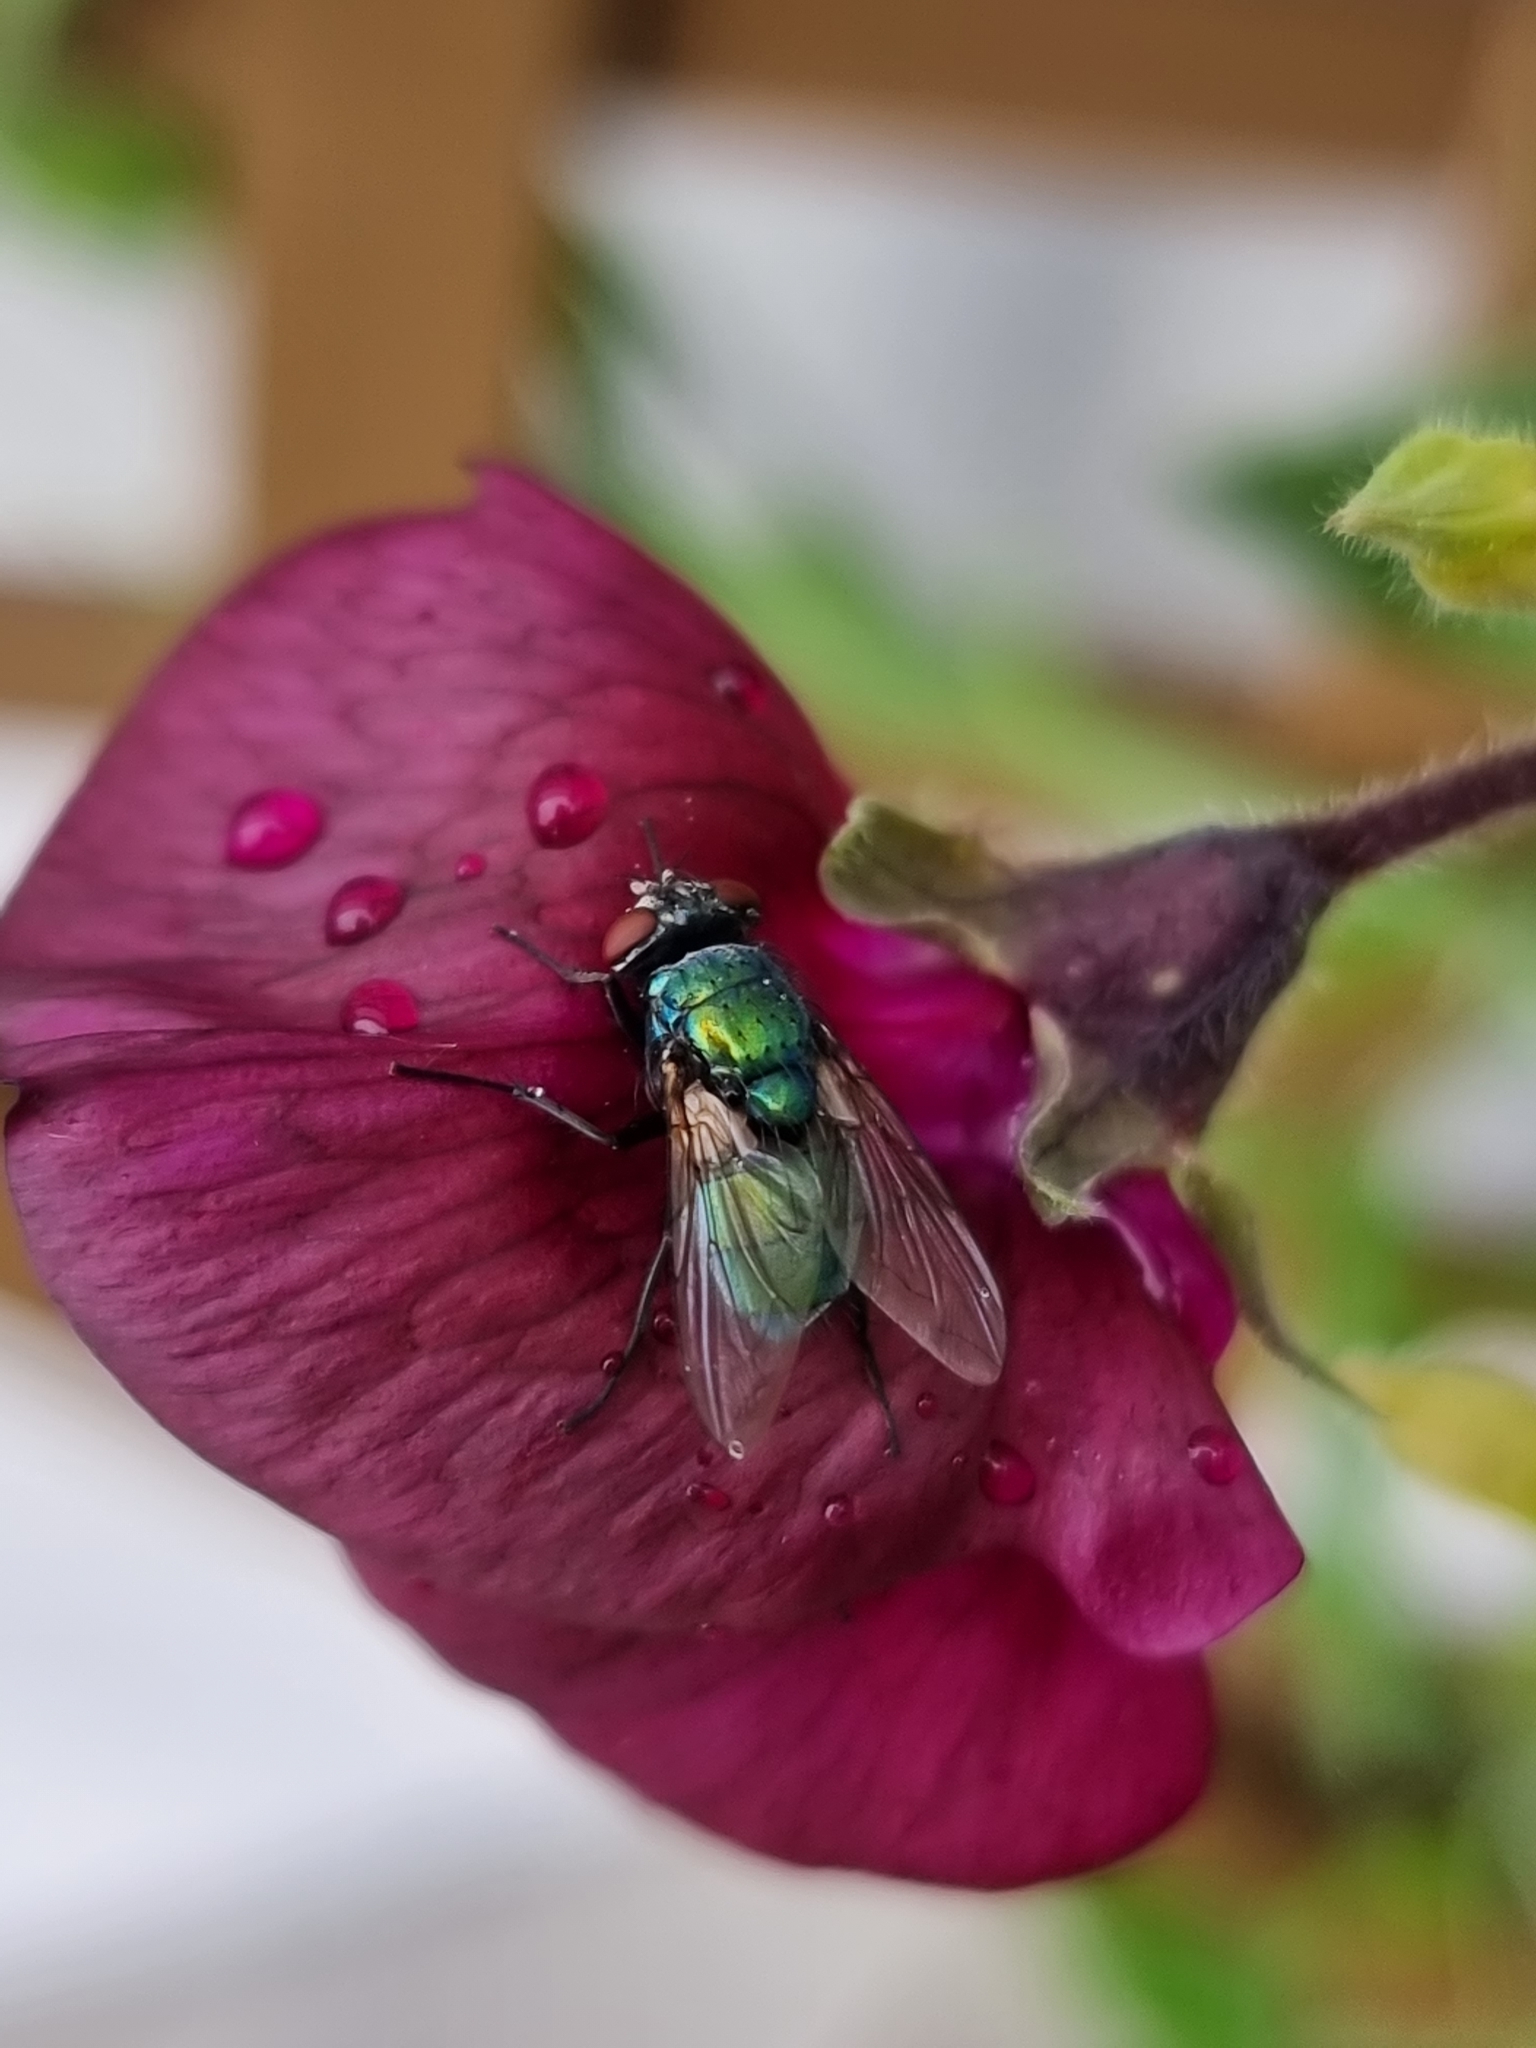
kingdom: Animalia
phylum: Arthropoda
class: Insecta
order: Diptera
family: Calliphoridae
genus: Lucilia
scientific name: Lucilia sericata
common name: Blow fly
